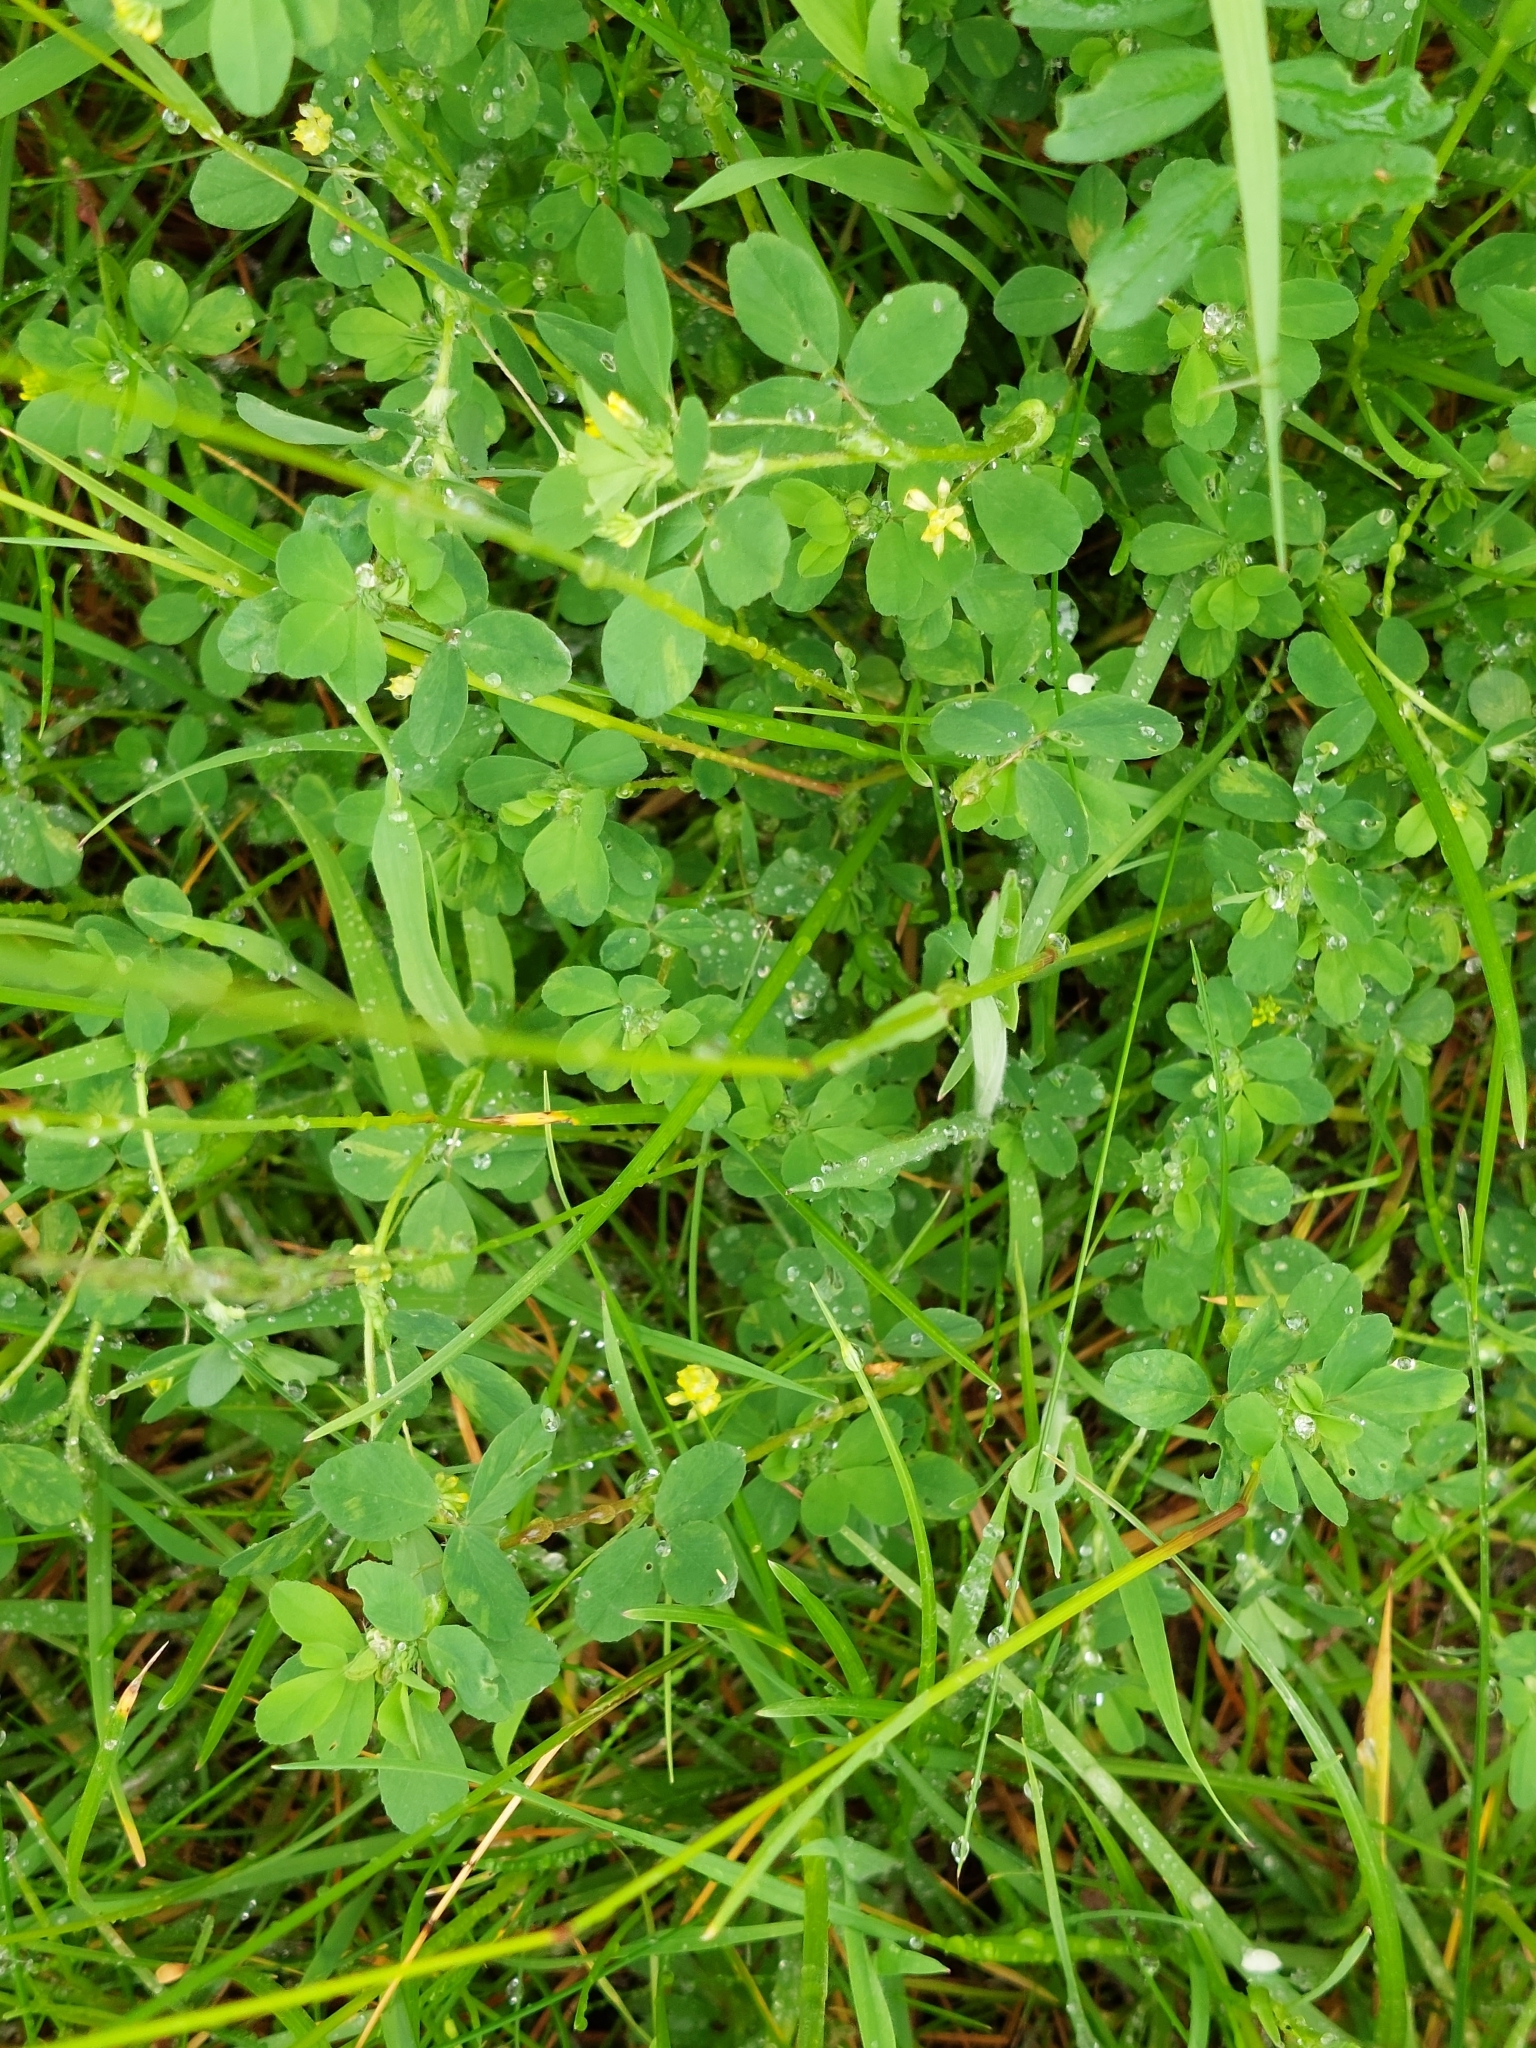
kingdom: Plantae
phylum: Tracheophyta
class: Magnoliopsida
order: Fabales
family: Fabaceae
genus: Trifolium
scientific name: Trifolium dubium
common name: Suckling clover
